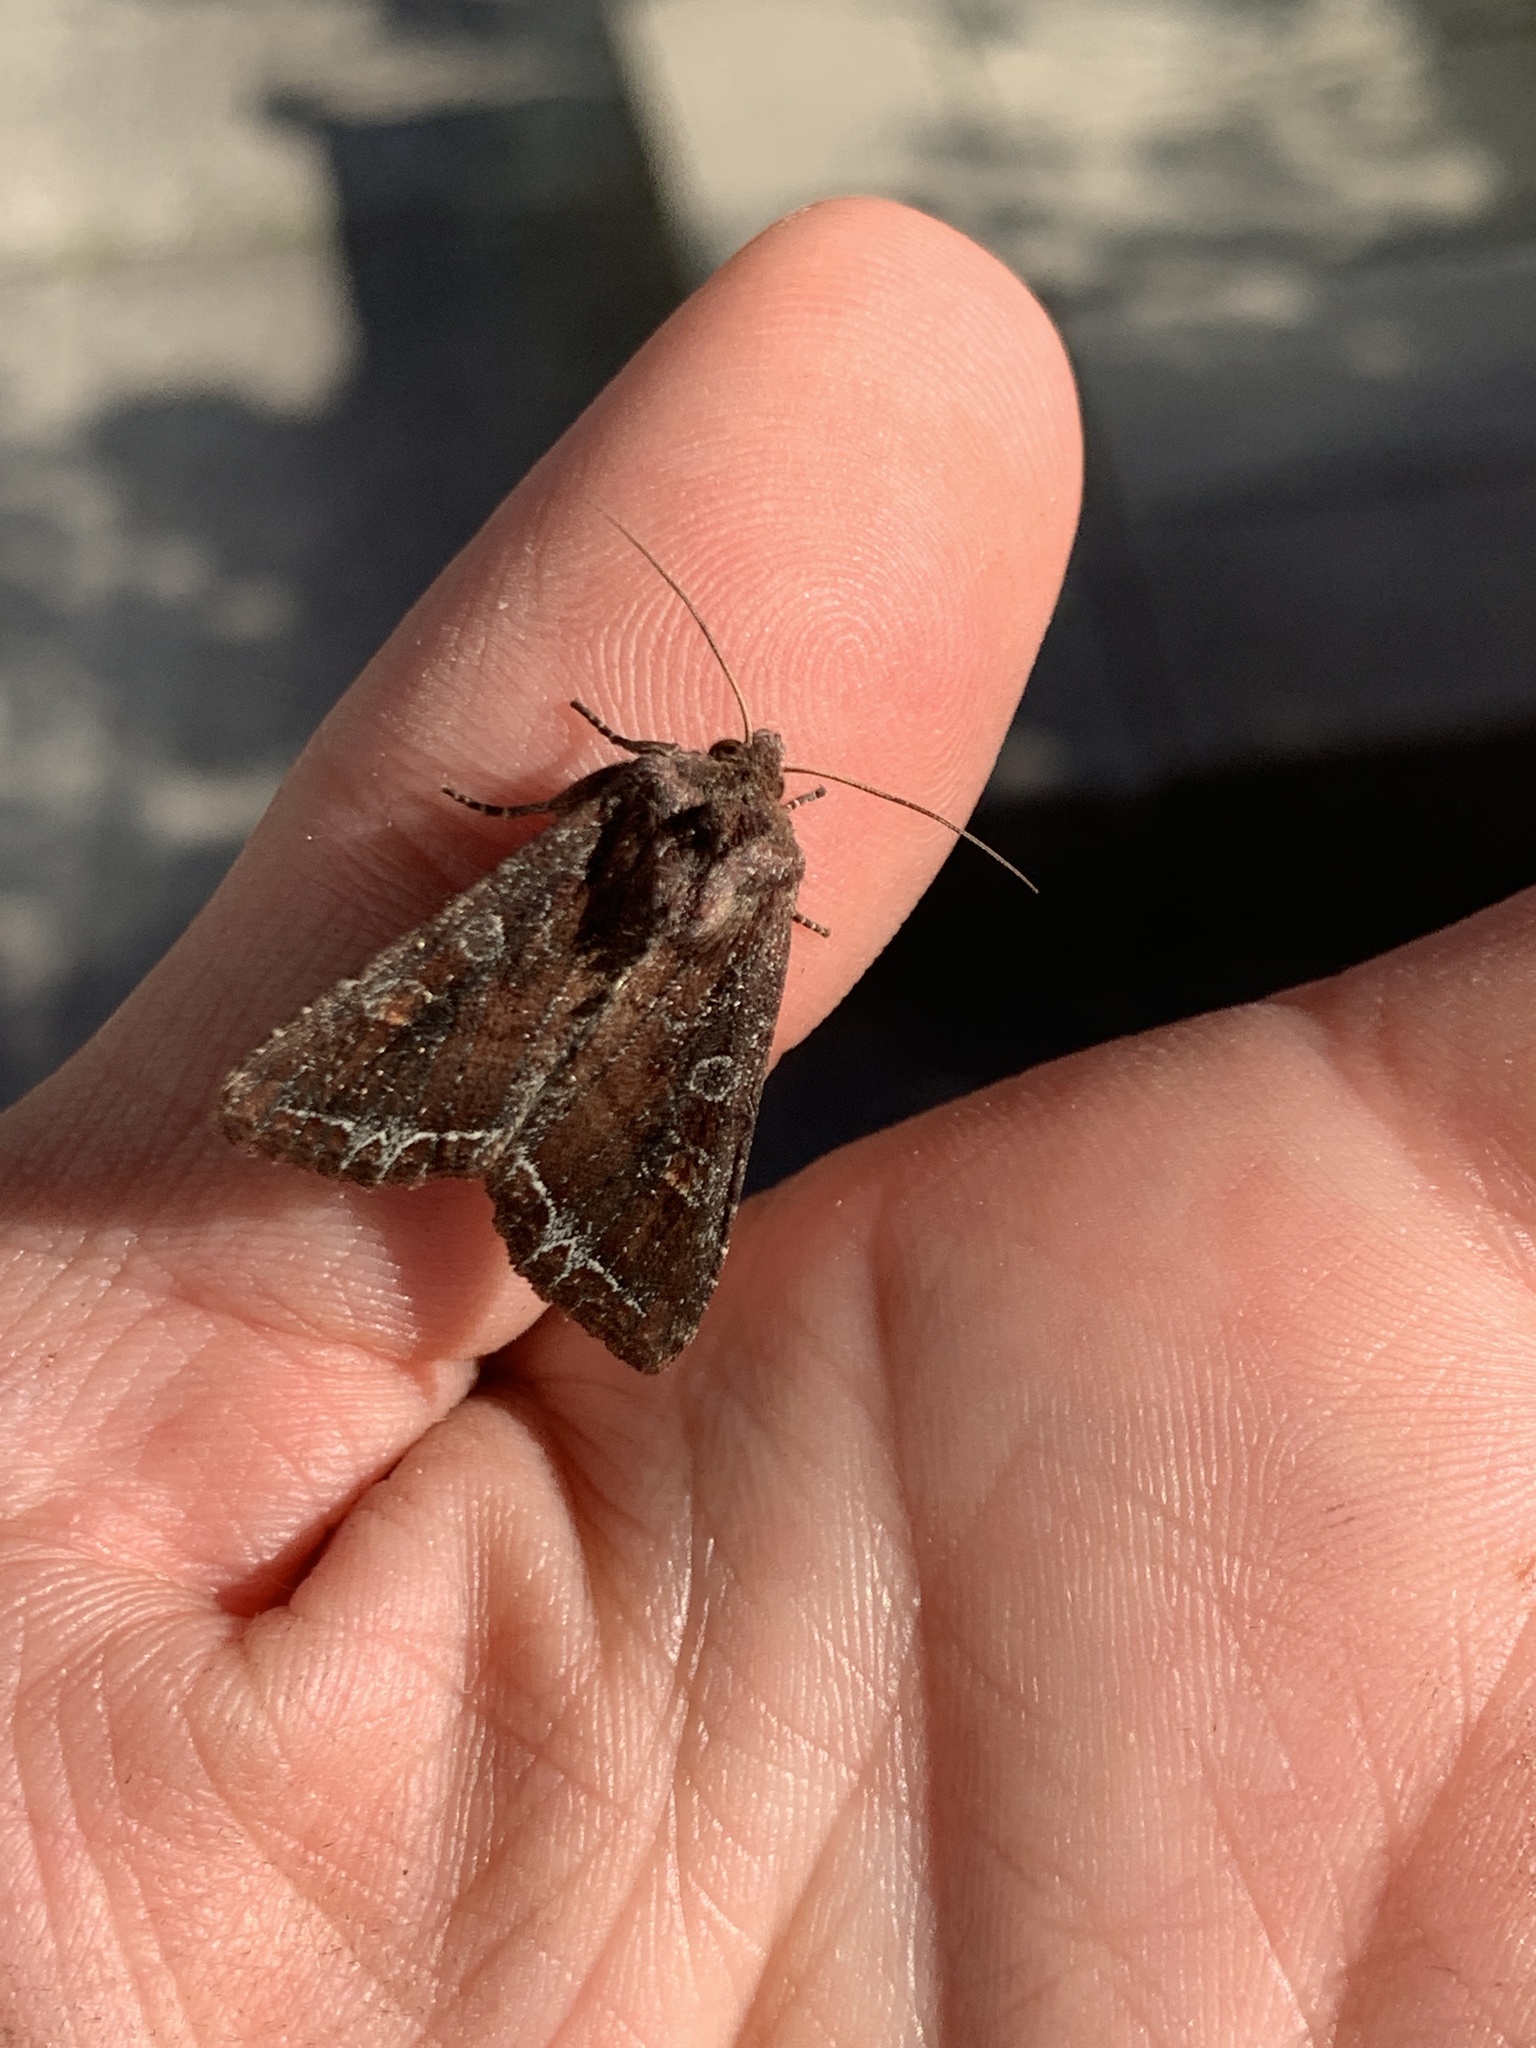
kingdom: Animalia
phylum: Arthropoda
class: Insecta
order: Lepidoptera
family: Noctuidae
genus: Lacanobia
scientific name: Lacanobia oleracea
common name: Bright-line brown-eye
